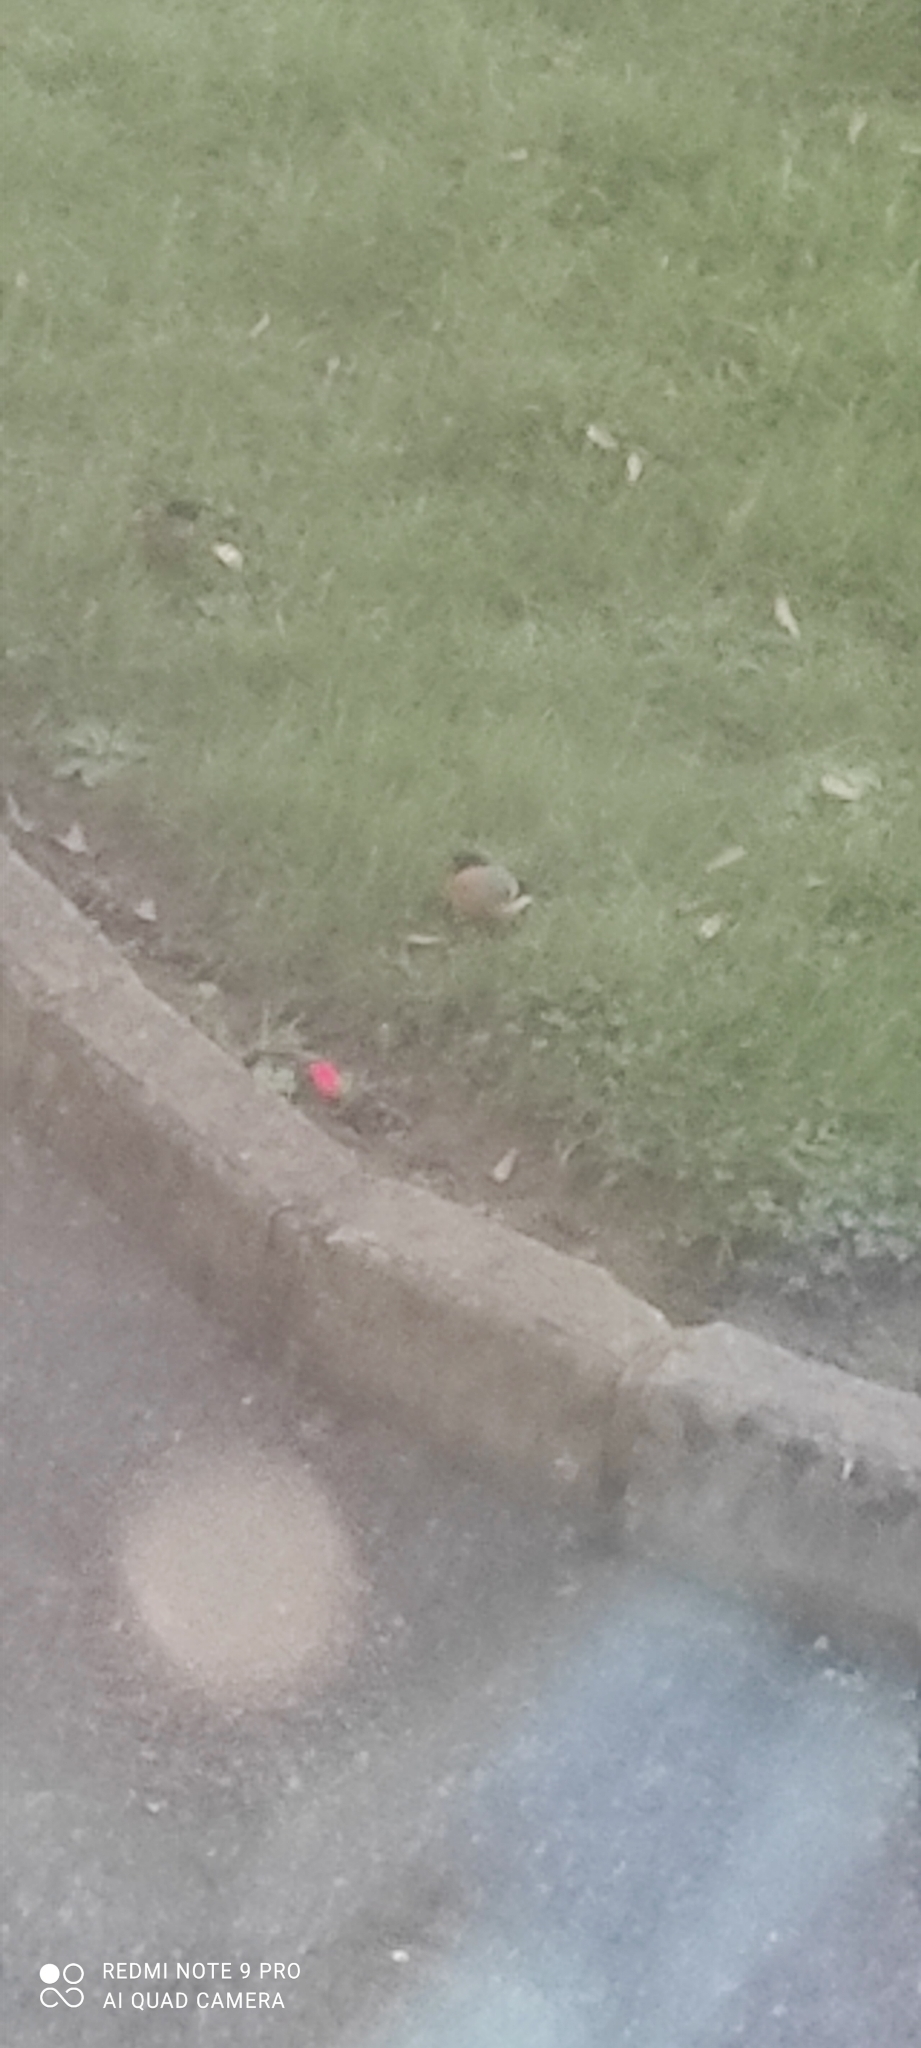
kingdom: Animalia
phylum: Chordata
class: Aves
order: Passeriformes
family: Fringillidae
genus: Pyrrhula
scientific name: Pyrrhula pyrrhula
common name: Eurasian bullfinch
